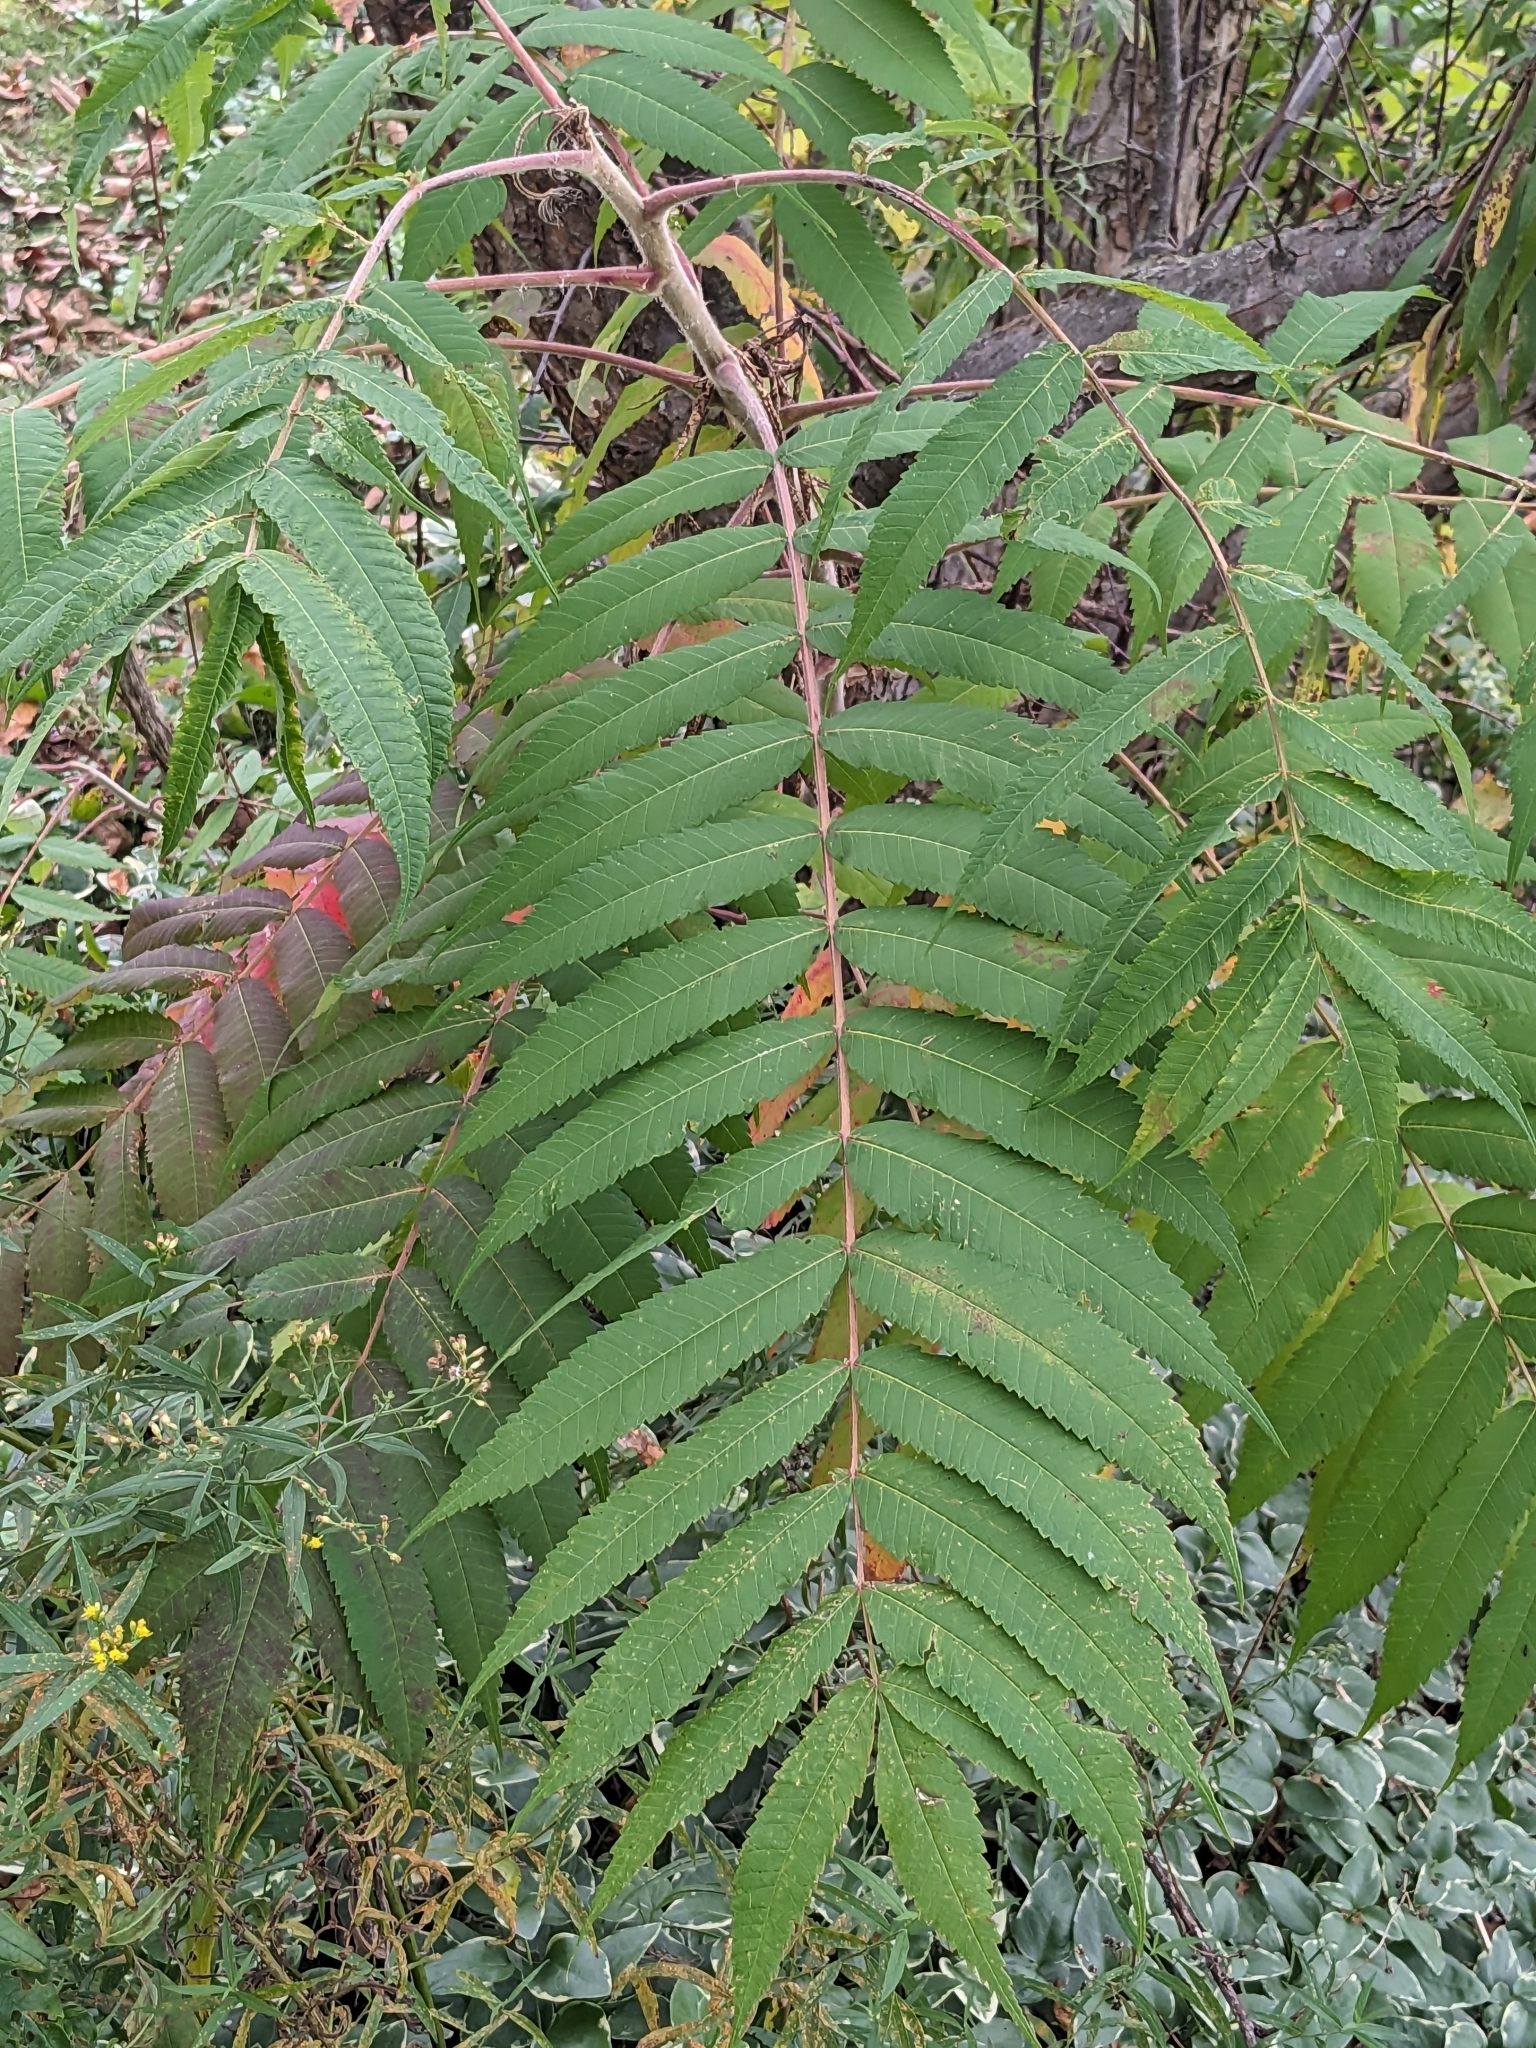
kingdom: Plantae
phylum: Tracheophyta
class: Magnoliopsida
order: Sapindales
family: Anacardiaceae
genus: Rhus
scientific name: Rhus typhina
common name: Staghorn sumac
